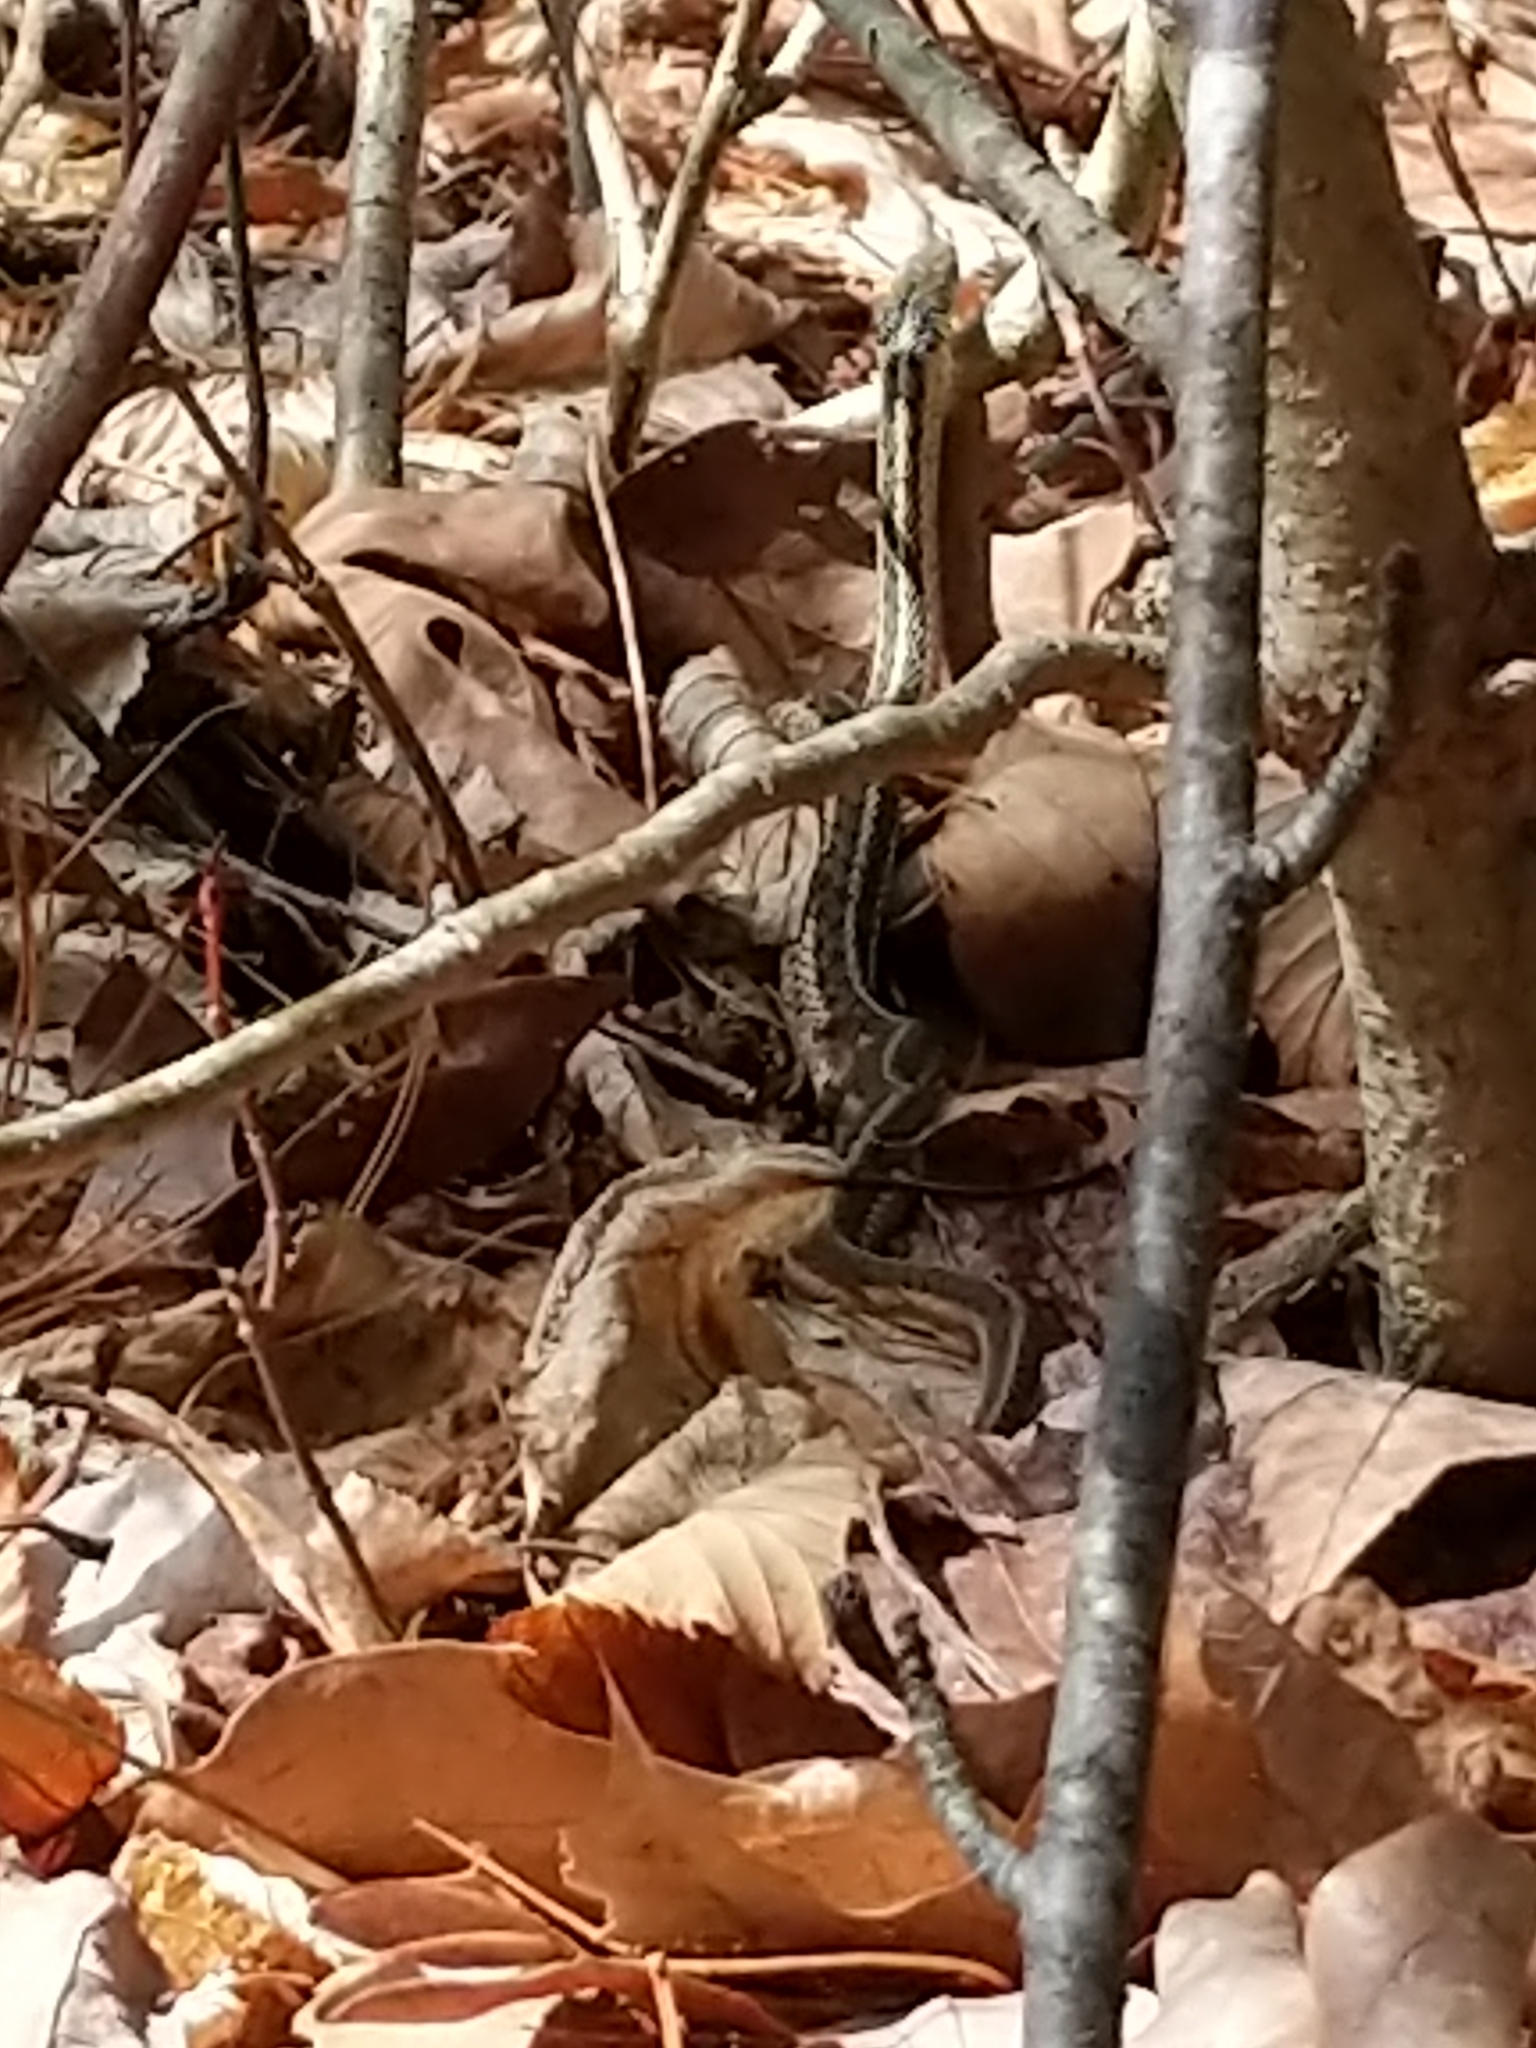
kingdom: Animalia
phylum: Chordata
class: Squamata
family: Colubridae
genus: Thamnophis
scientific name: Thamnophis sirtalis
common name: Common garter snake
